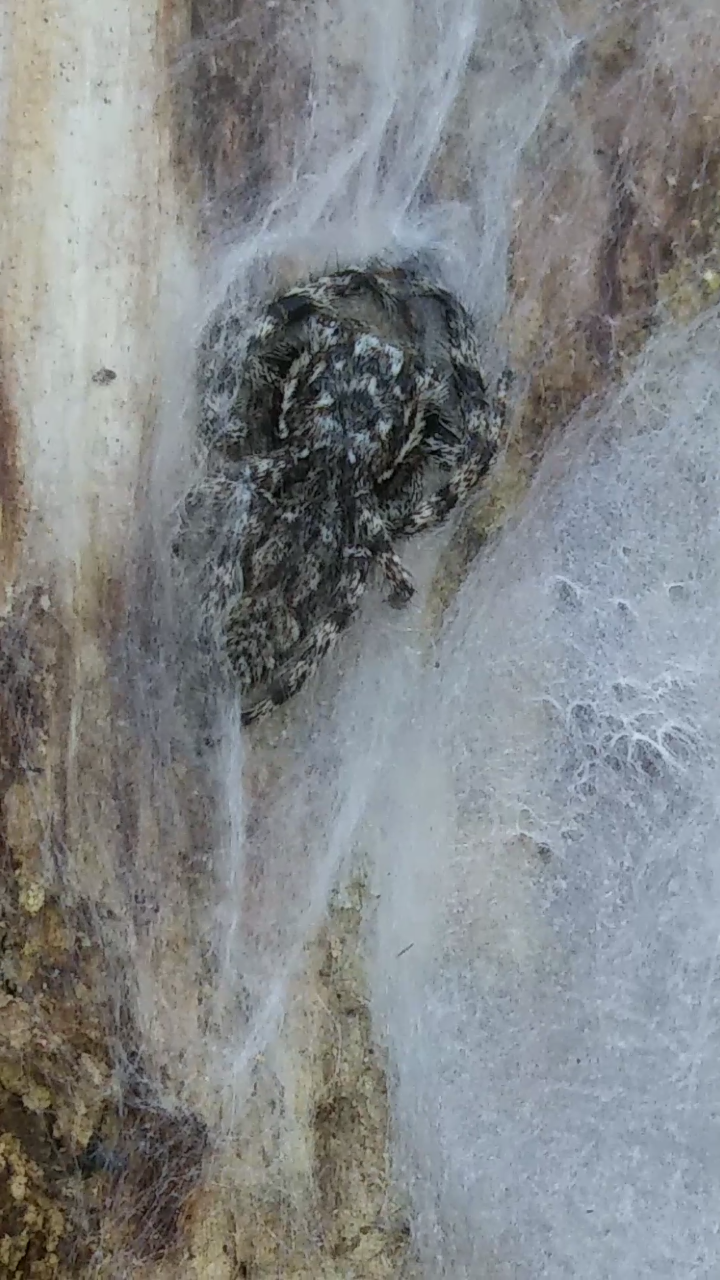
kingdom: Animalia
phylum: Arthropoda
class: Arachnida
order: Araneae
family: Salticidae
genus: Platycryptus
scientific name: Platycryptus undatus
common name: Tan jumping spider
